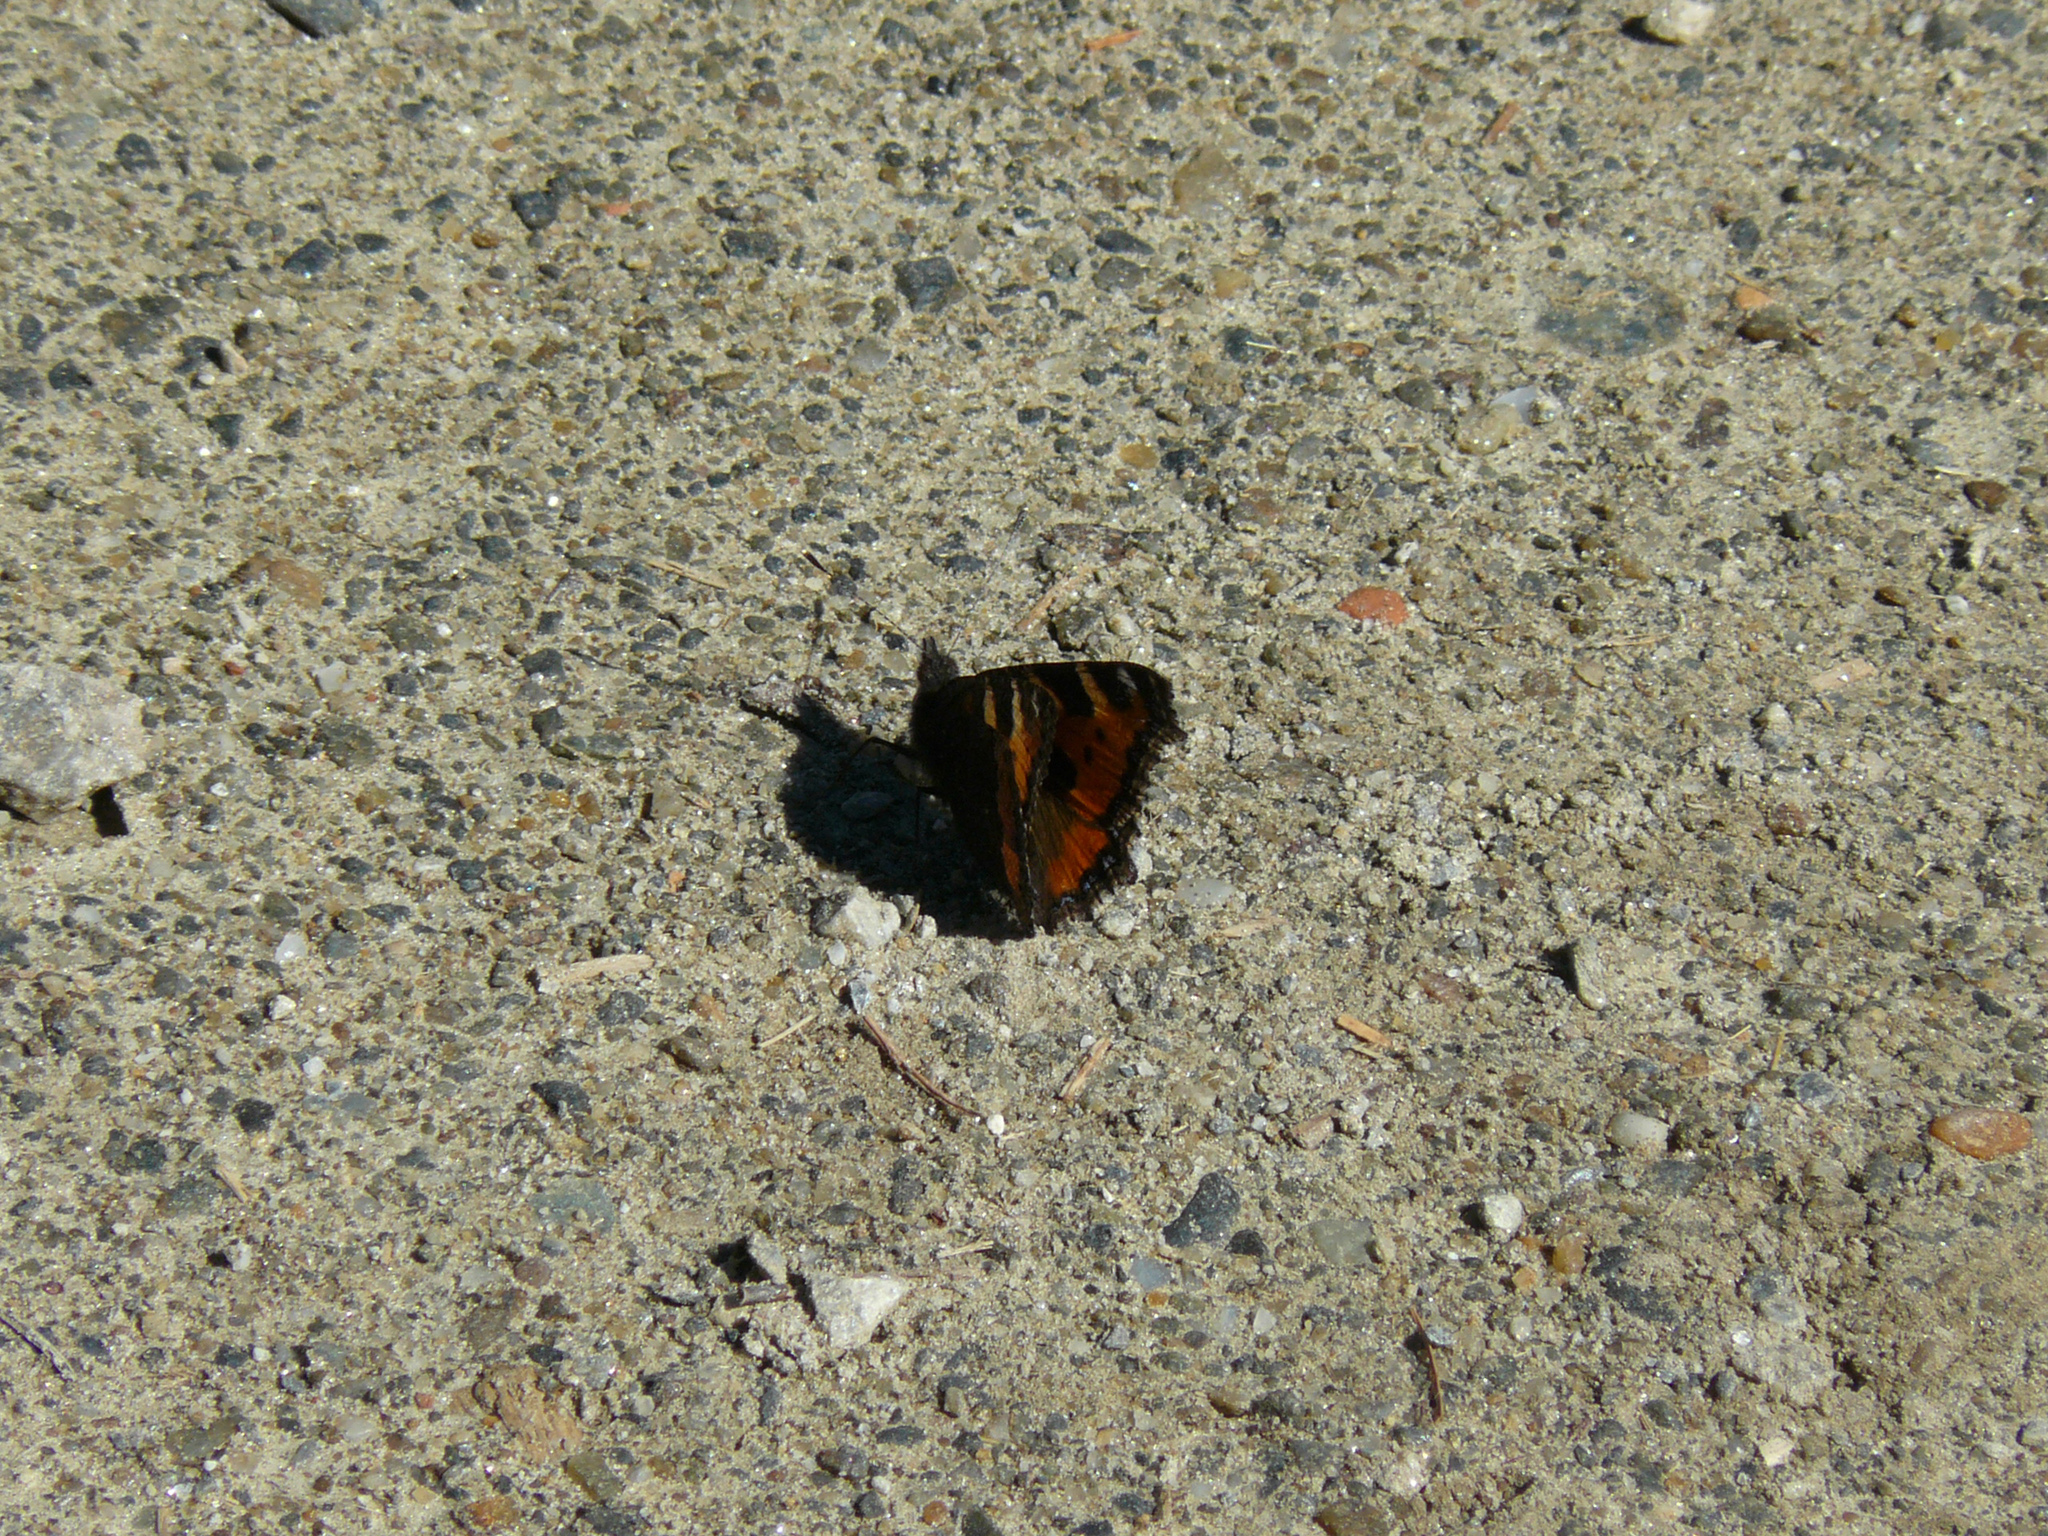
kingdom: Animalia
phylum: Arthropoda
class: Insecta
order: Lepidoptera
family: Nymphalidae
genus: Aglais
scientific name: Aglais urticae
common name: Small tortoiseshell
